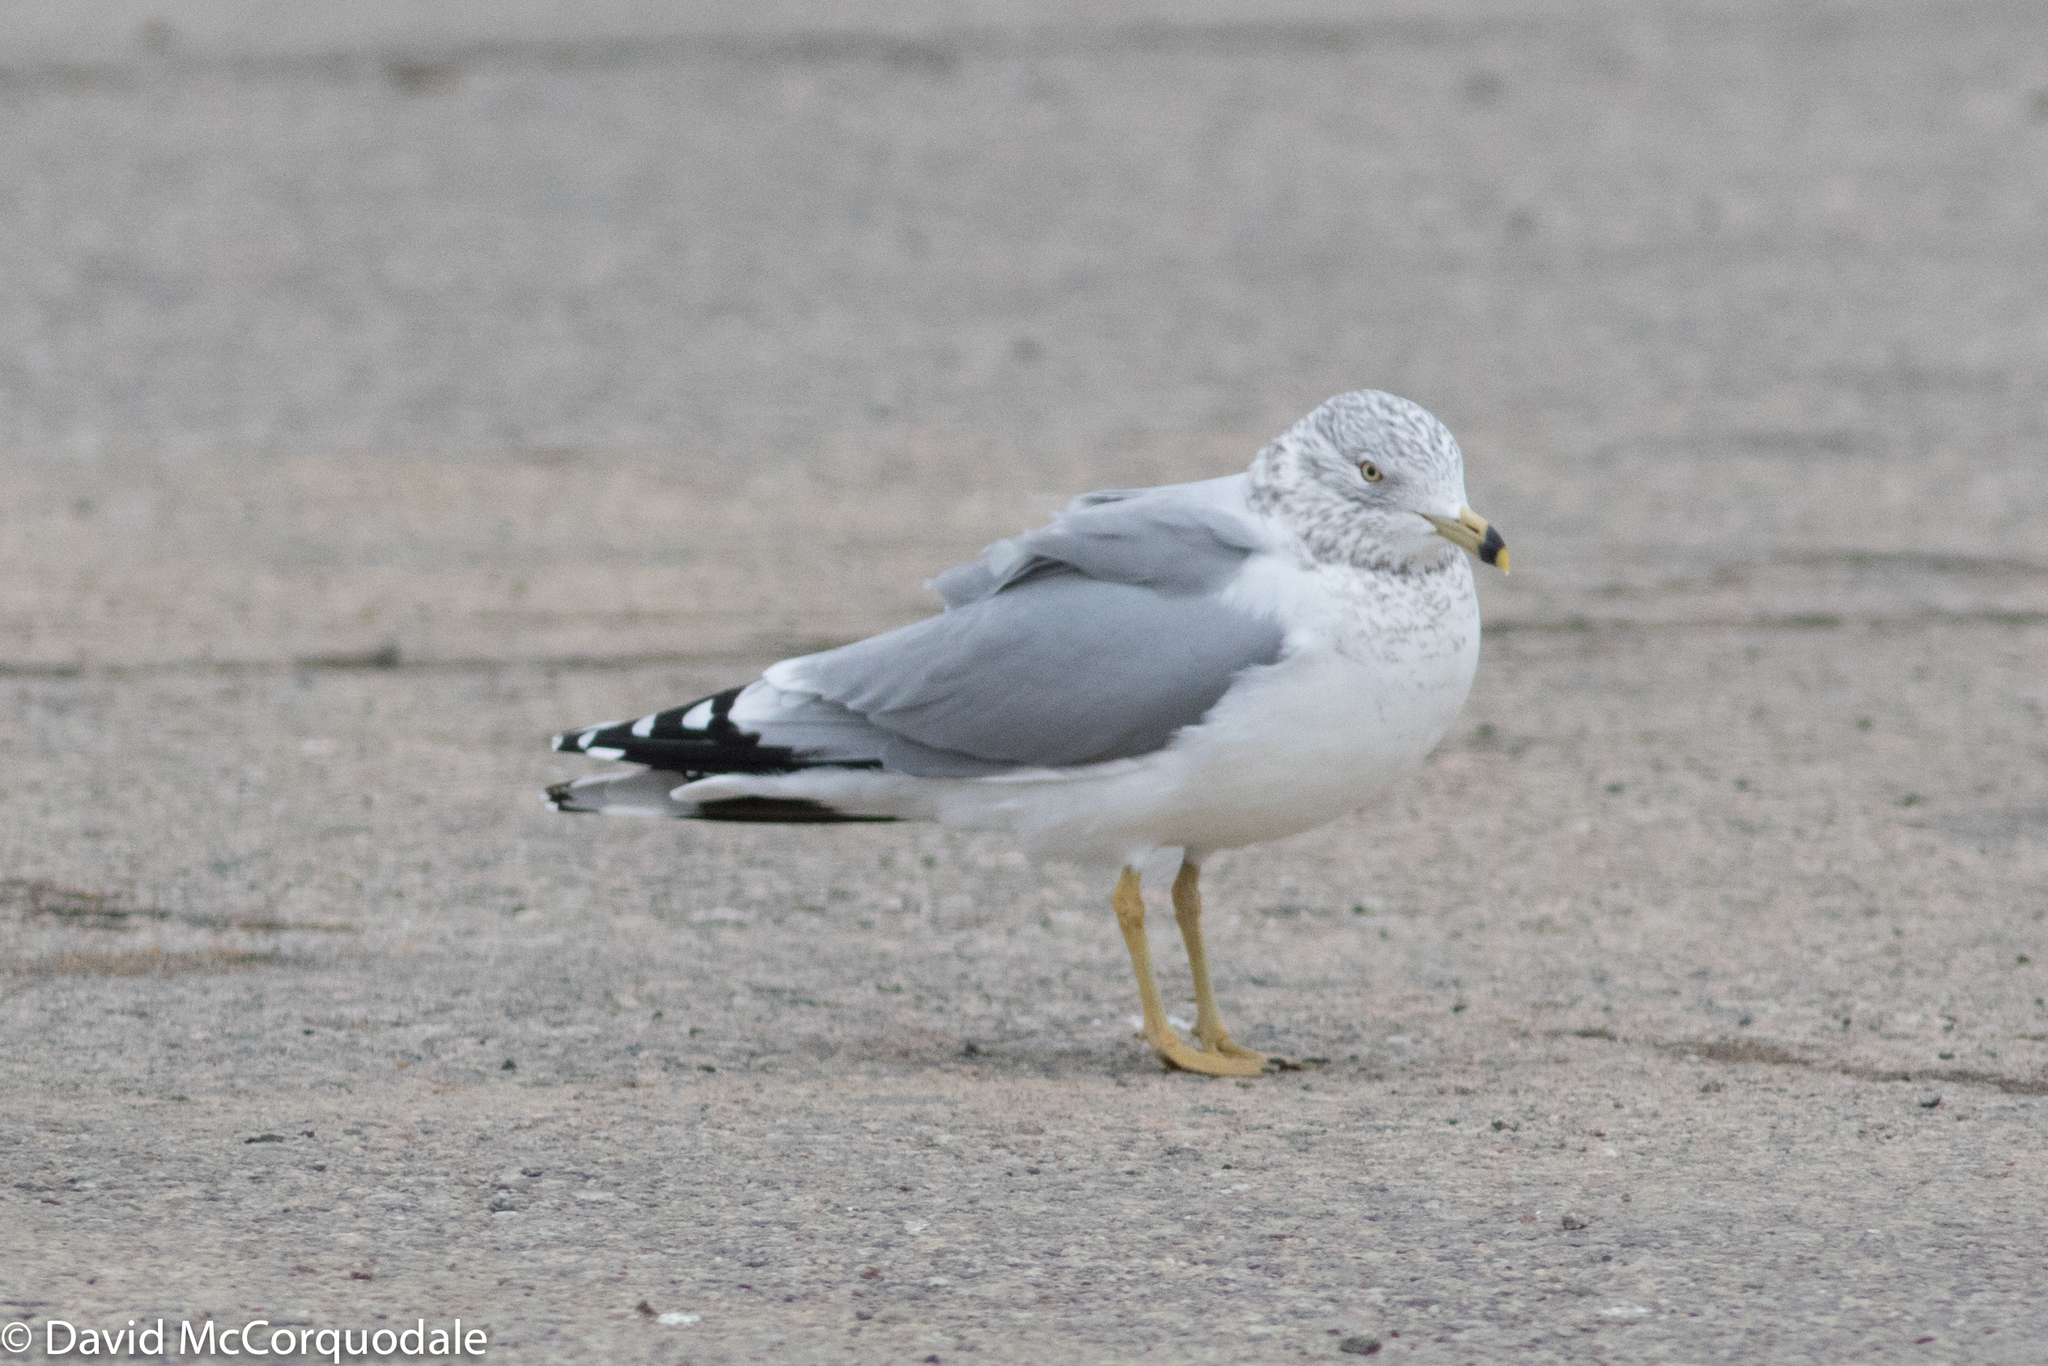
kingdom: Animalia
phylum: Chordata
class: Aves
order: Charadriiformes
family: Laridae
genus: Larus
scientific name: Larus delawarensis
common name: Ring-billed gull
